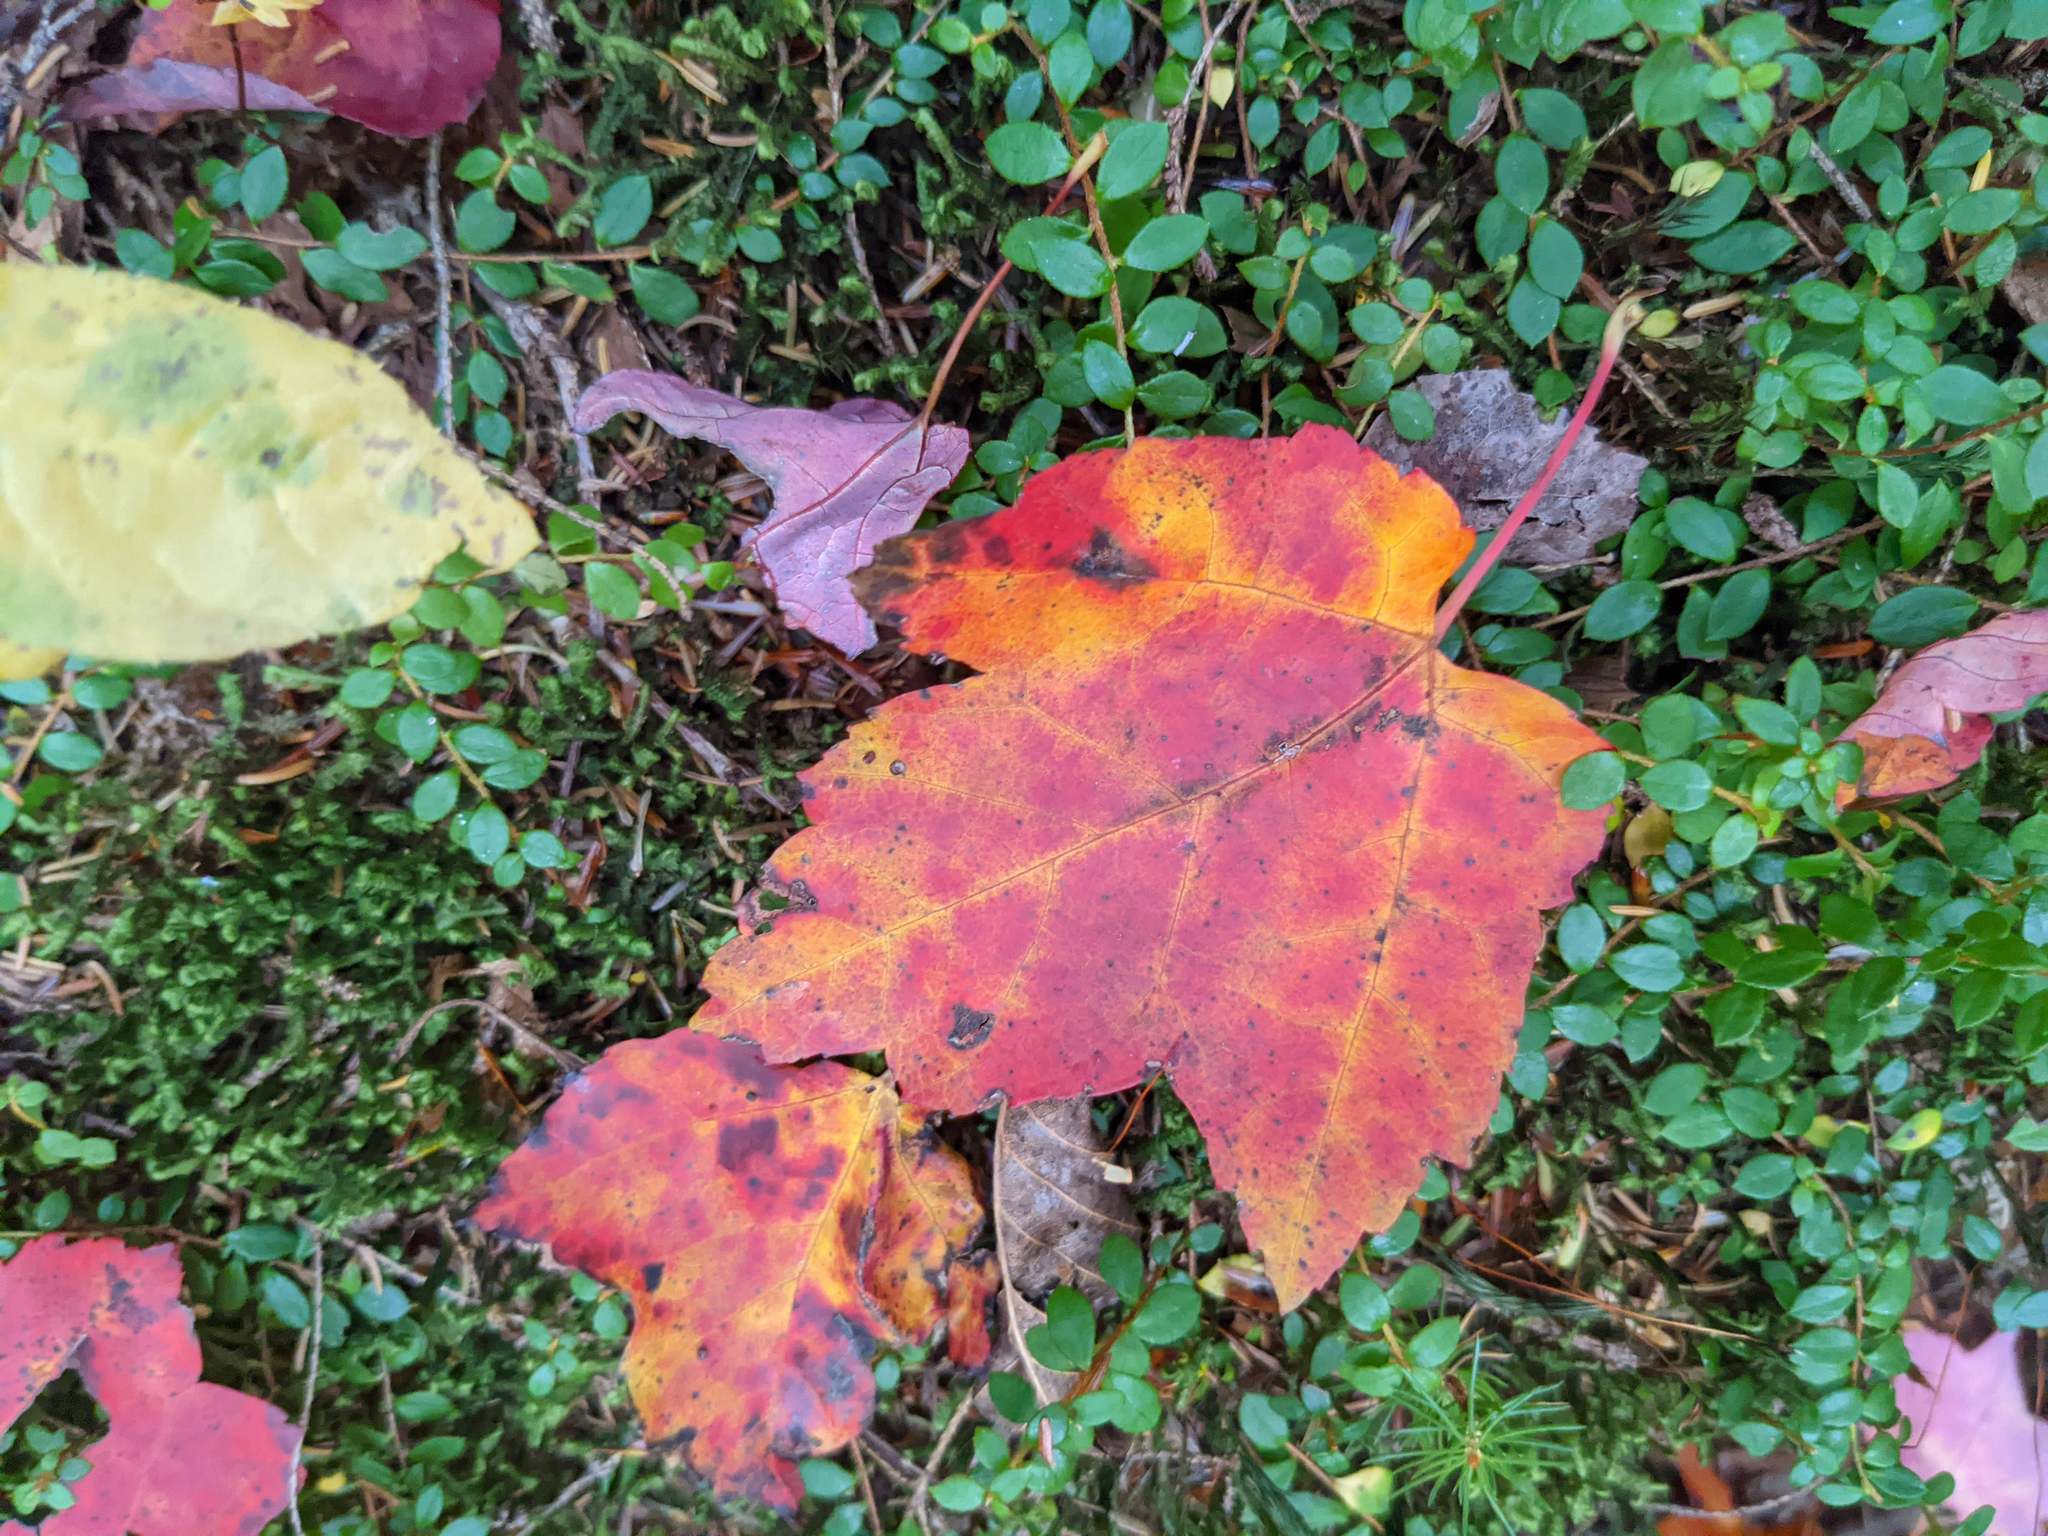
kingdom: Plantae
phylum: Tracheophyta
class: Magnoliopsida
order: Sapindales
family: Sapindaceae
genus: Acer
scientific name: Acer rubrum
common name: Red maple
